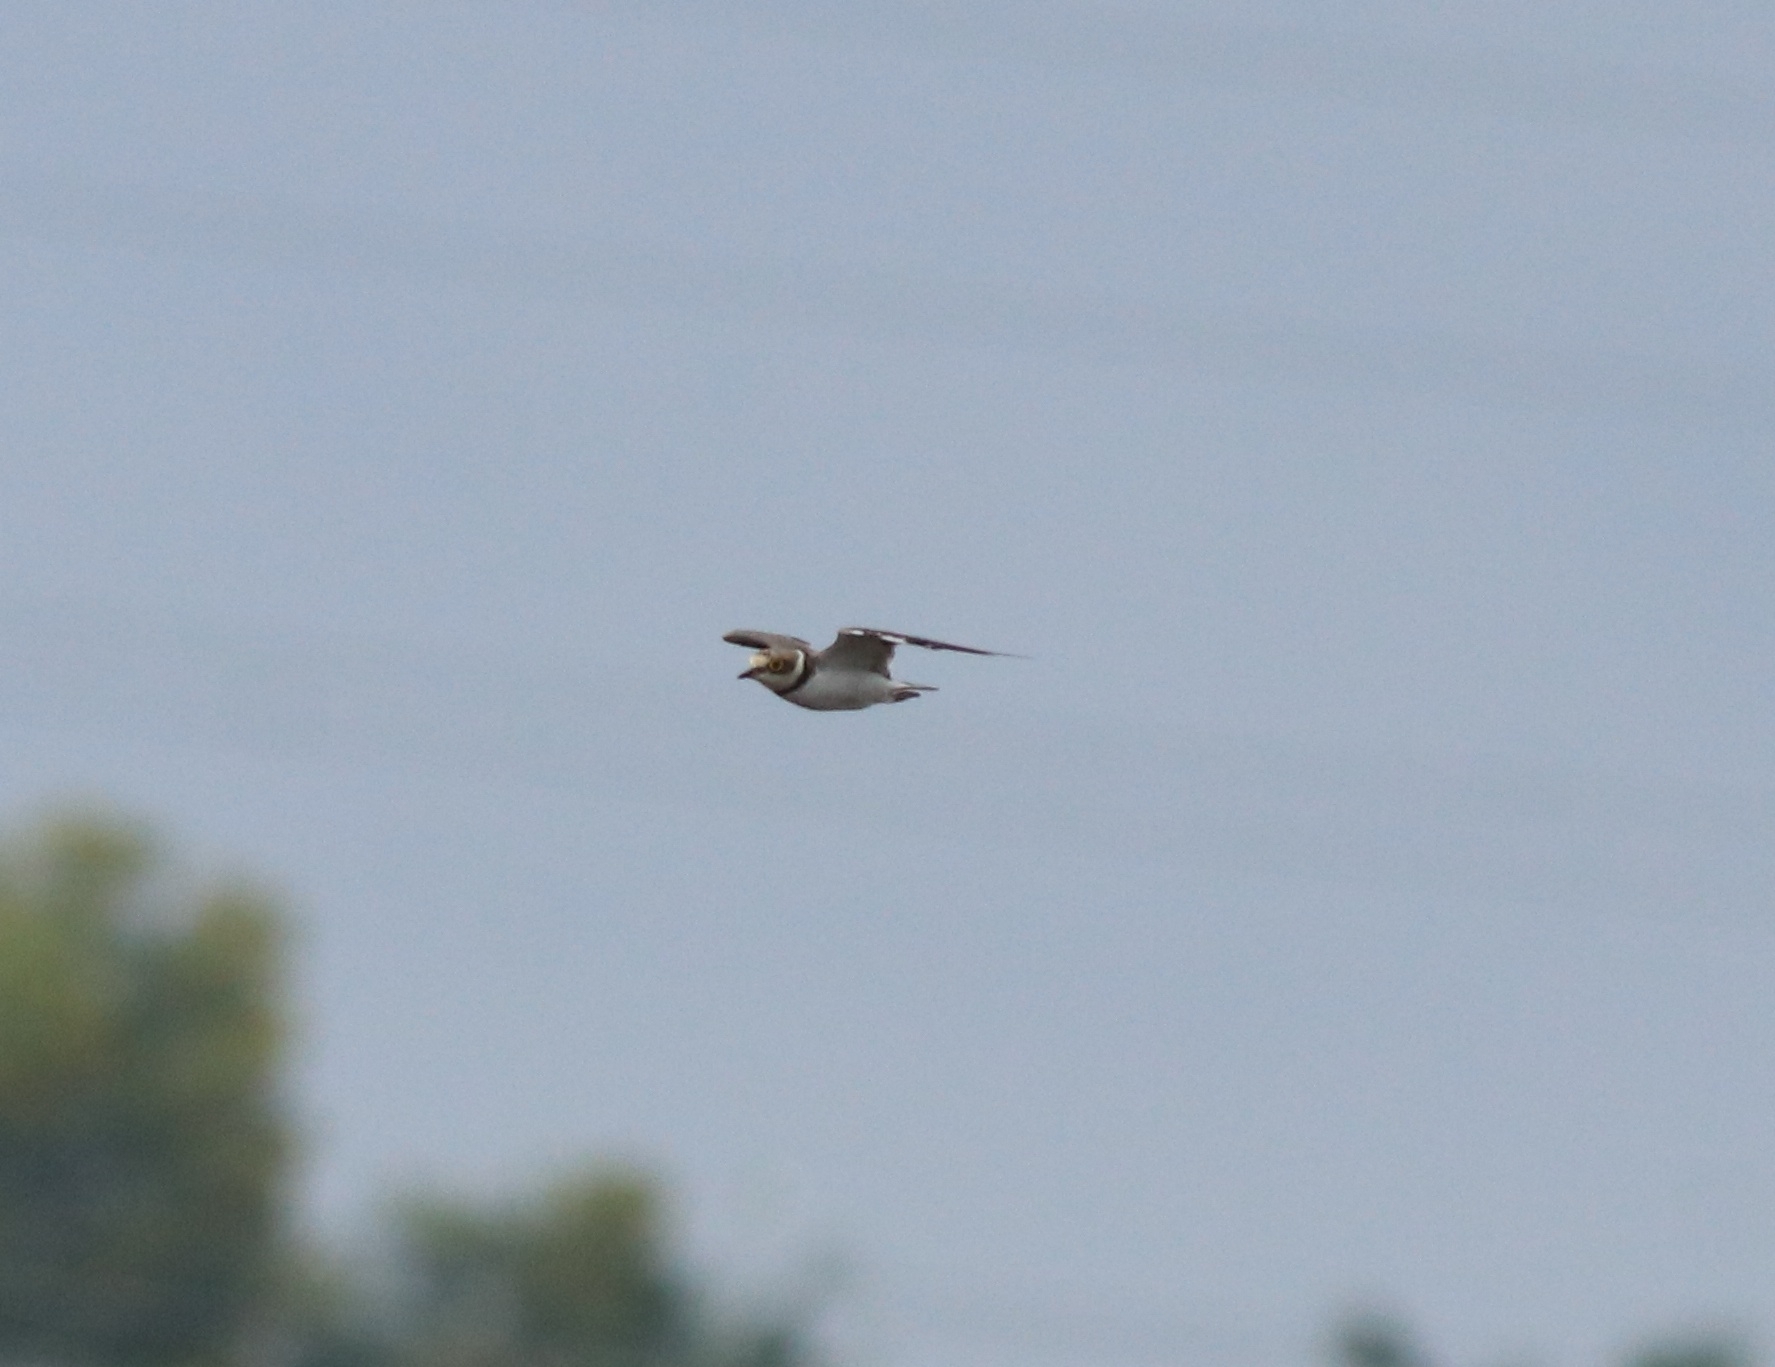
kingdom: Animalia
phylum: Chordata
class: Aves
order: Charadriiformes
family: Charadriidae
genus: Charadrius
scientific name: Charadrius dubius
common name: Little ringed plover
